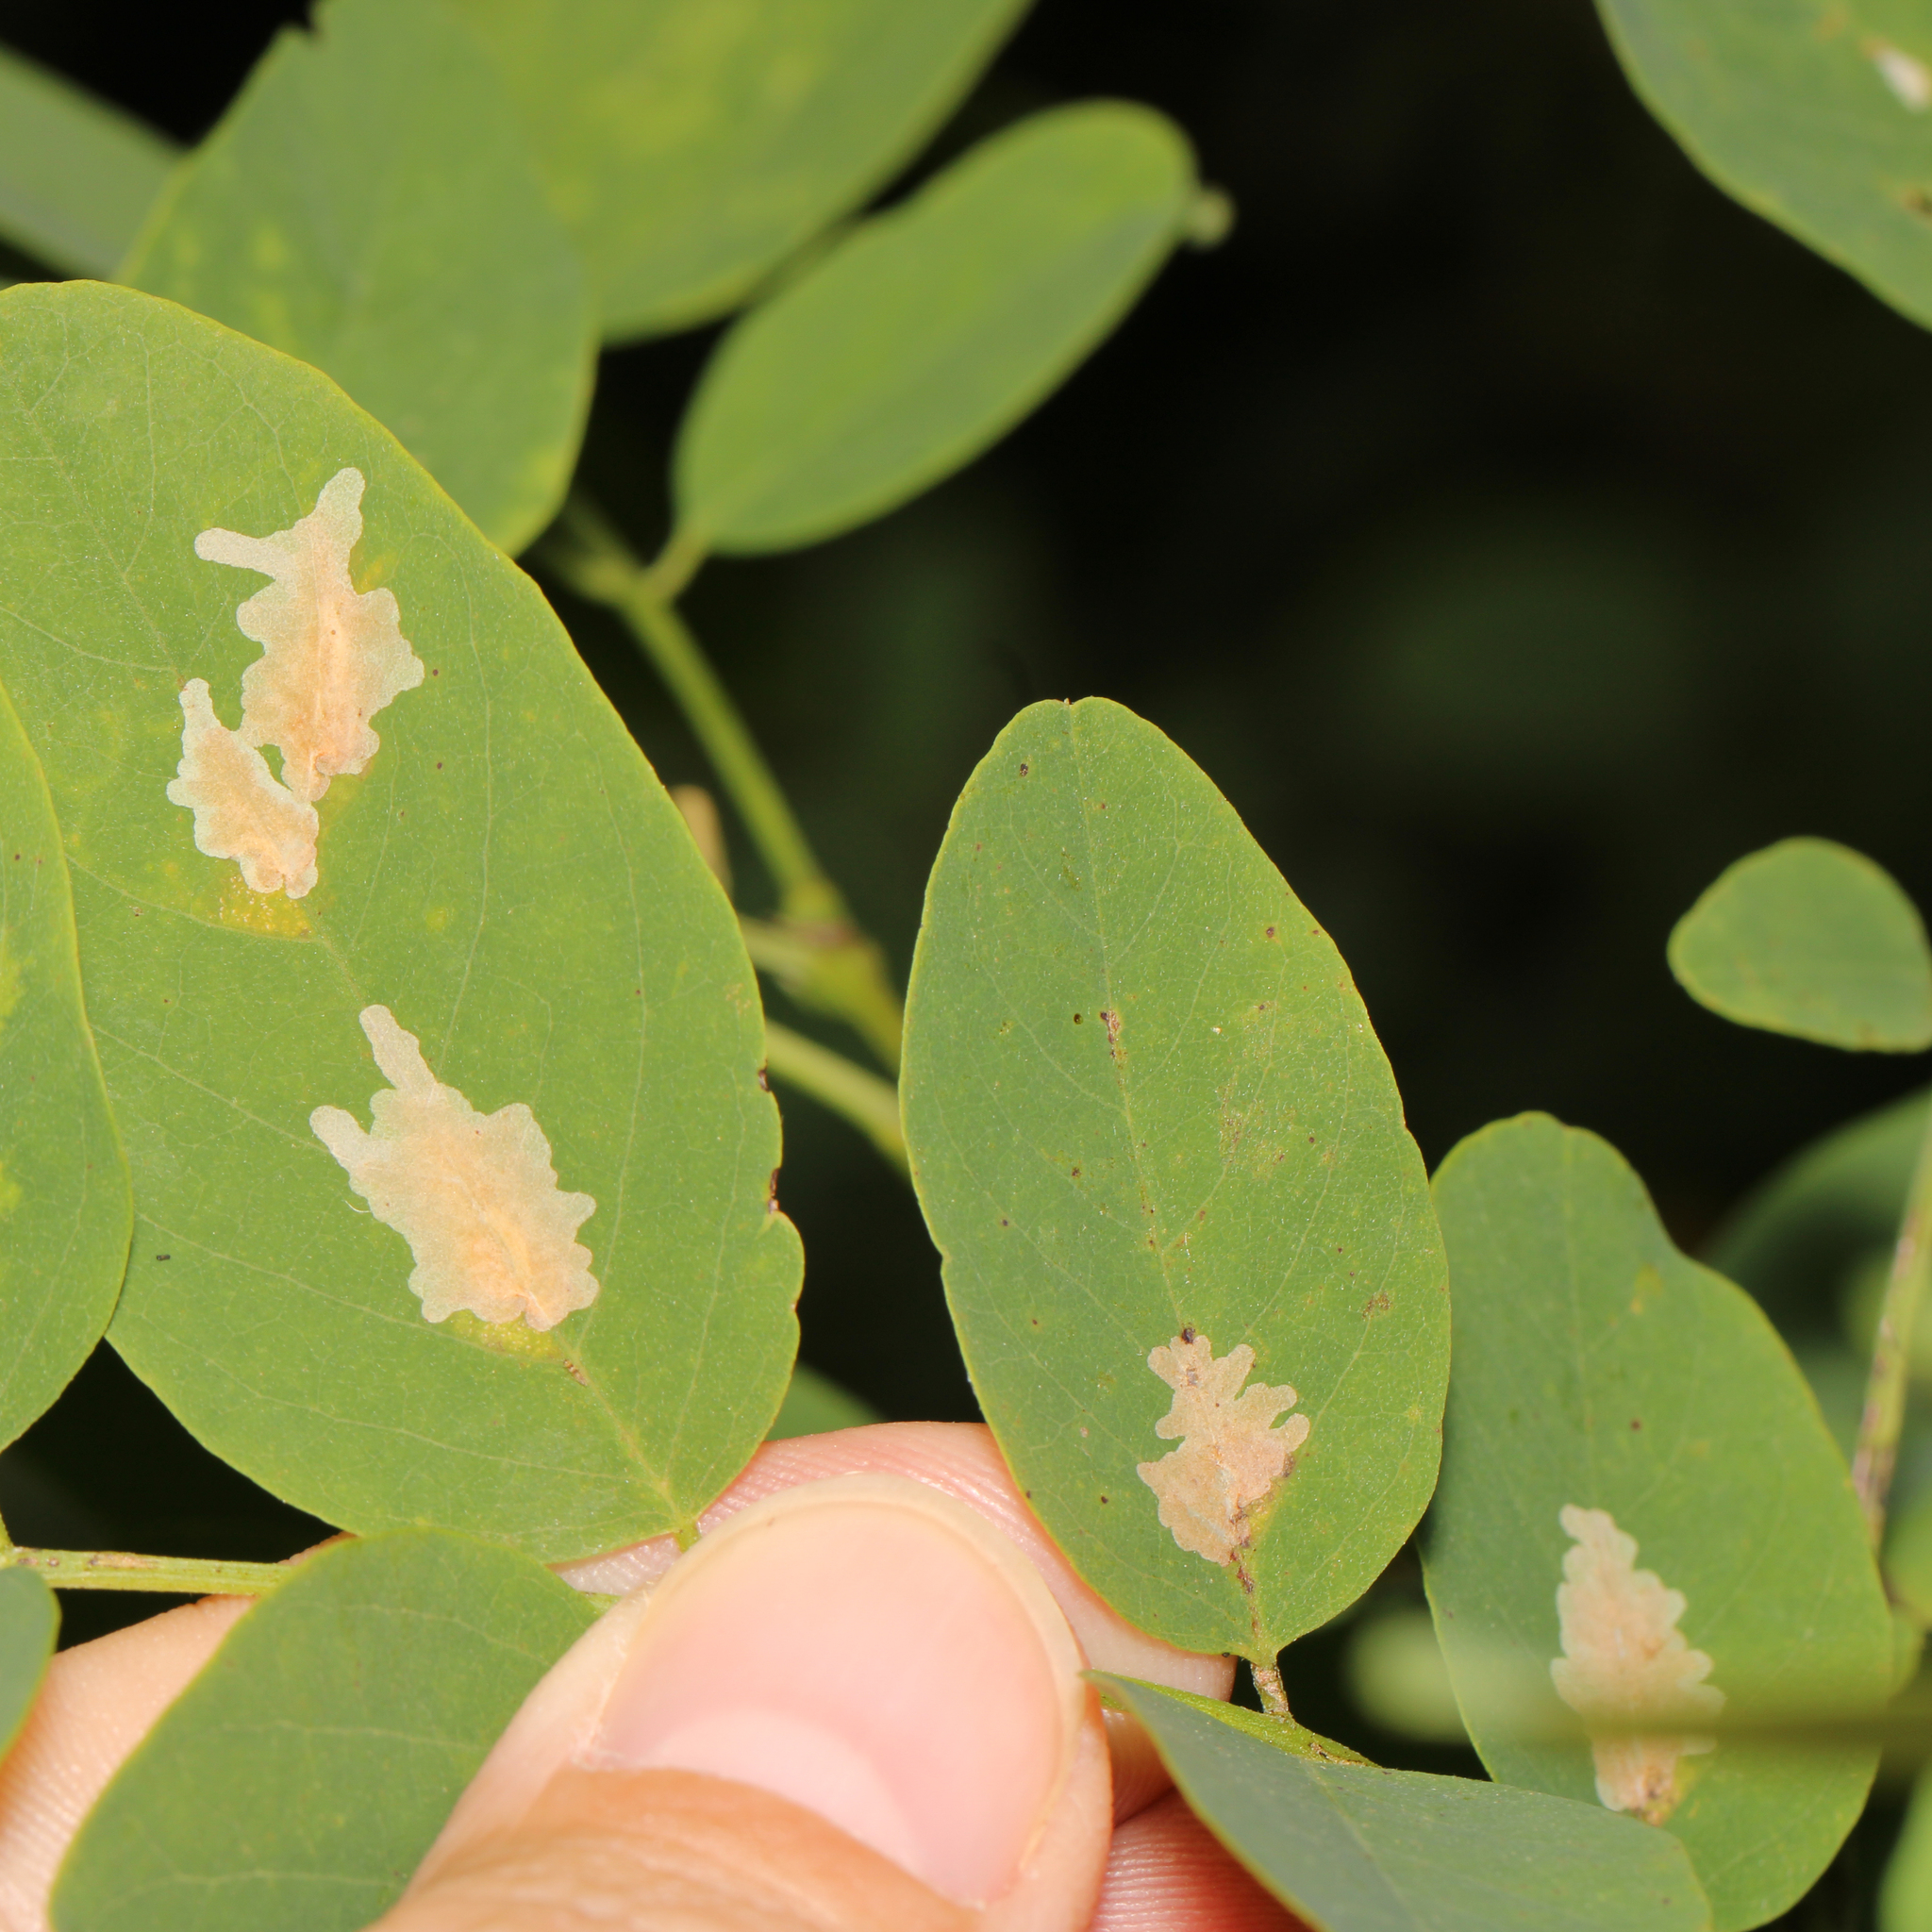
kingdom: Animalia
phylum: Arthropoda
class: Insecta
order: Lepidoptera
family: Gracillariidae
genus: Parectopa
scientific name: Parectopa robiniella
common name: Locust digitate leafminer
